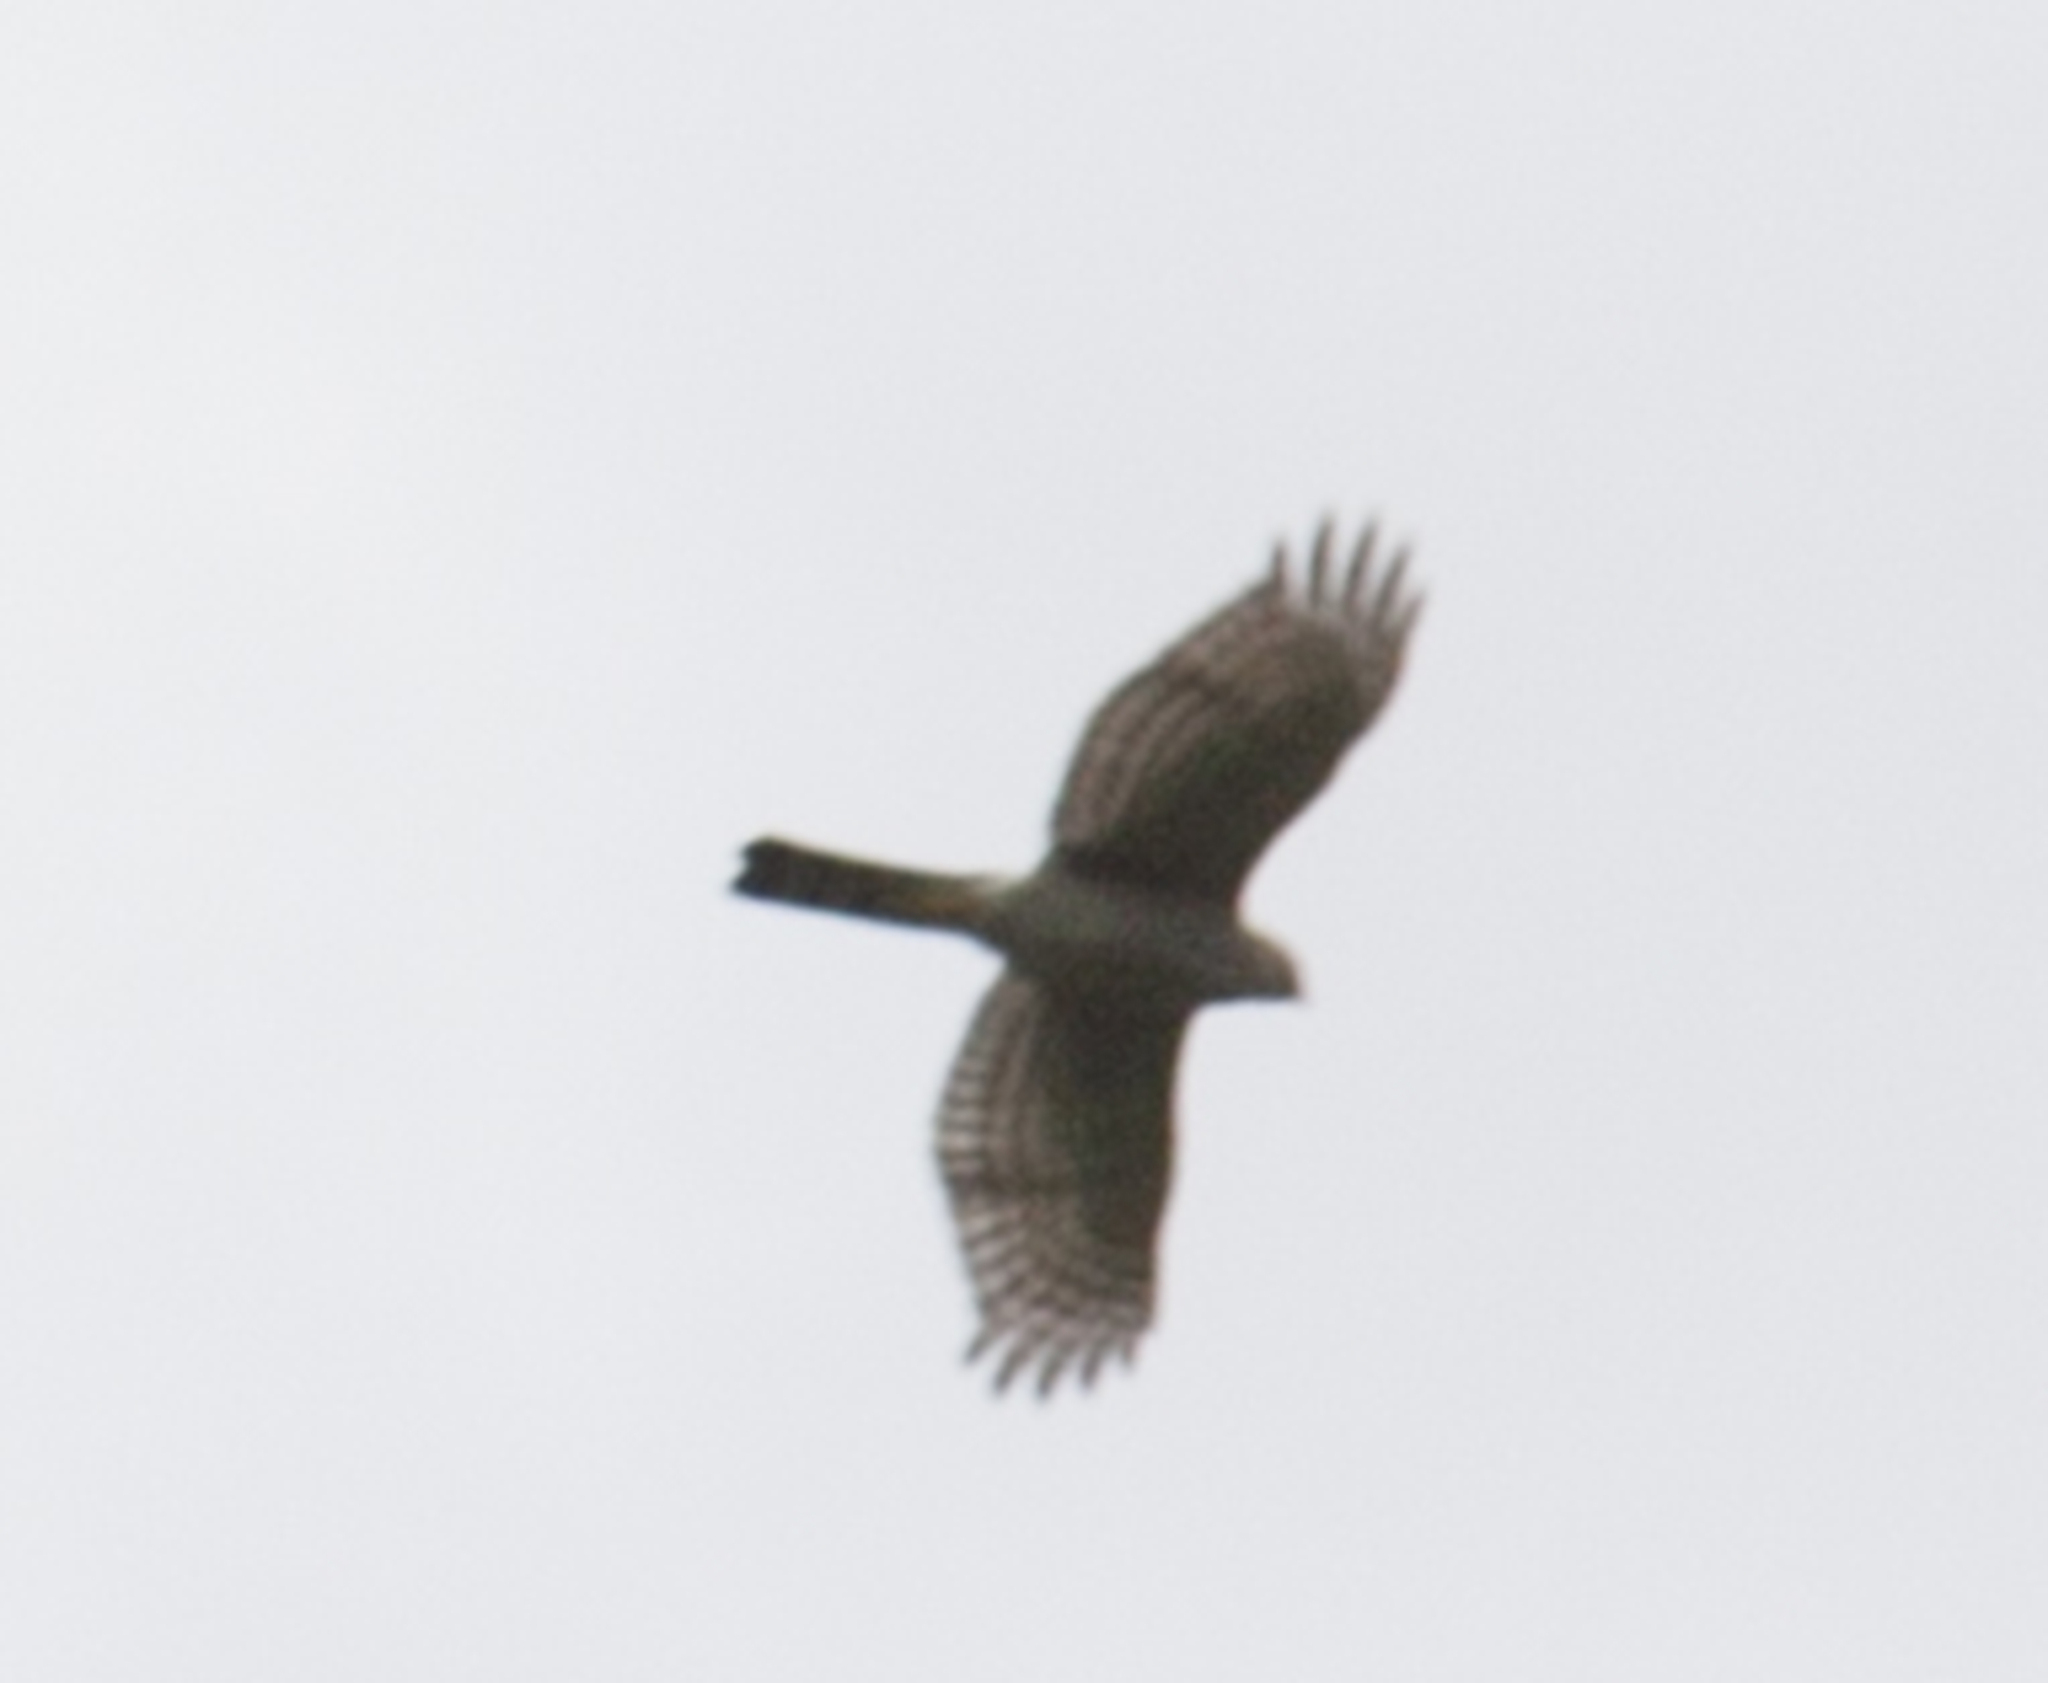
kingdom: Animalia
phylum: Chordata
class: Aves
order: Accipitriformes
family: Accipitridae
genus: Accipiter
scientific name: Accipiter nisus
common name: Eurasian sparrowhawk
